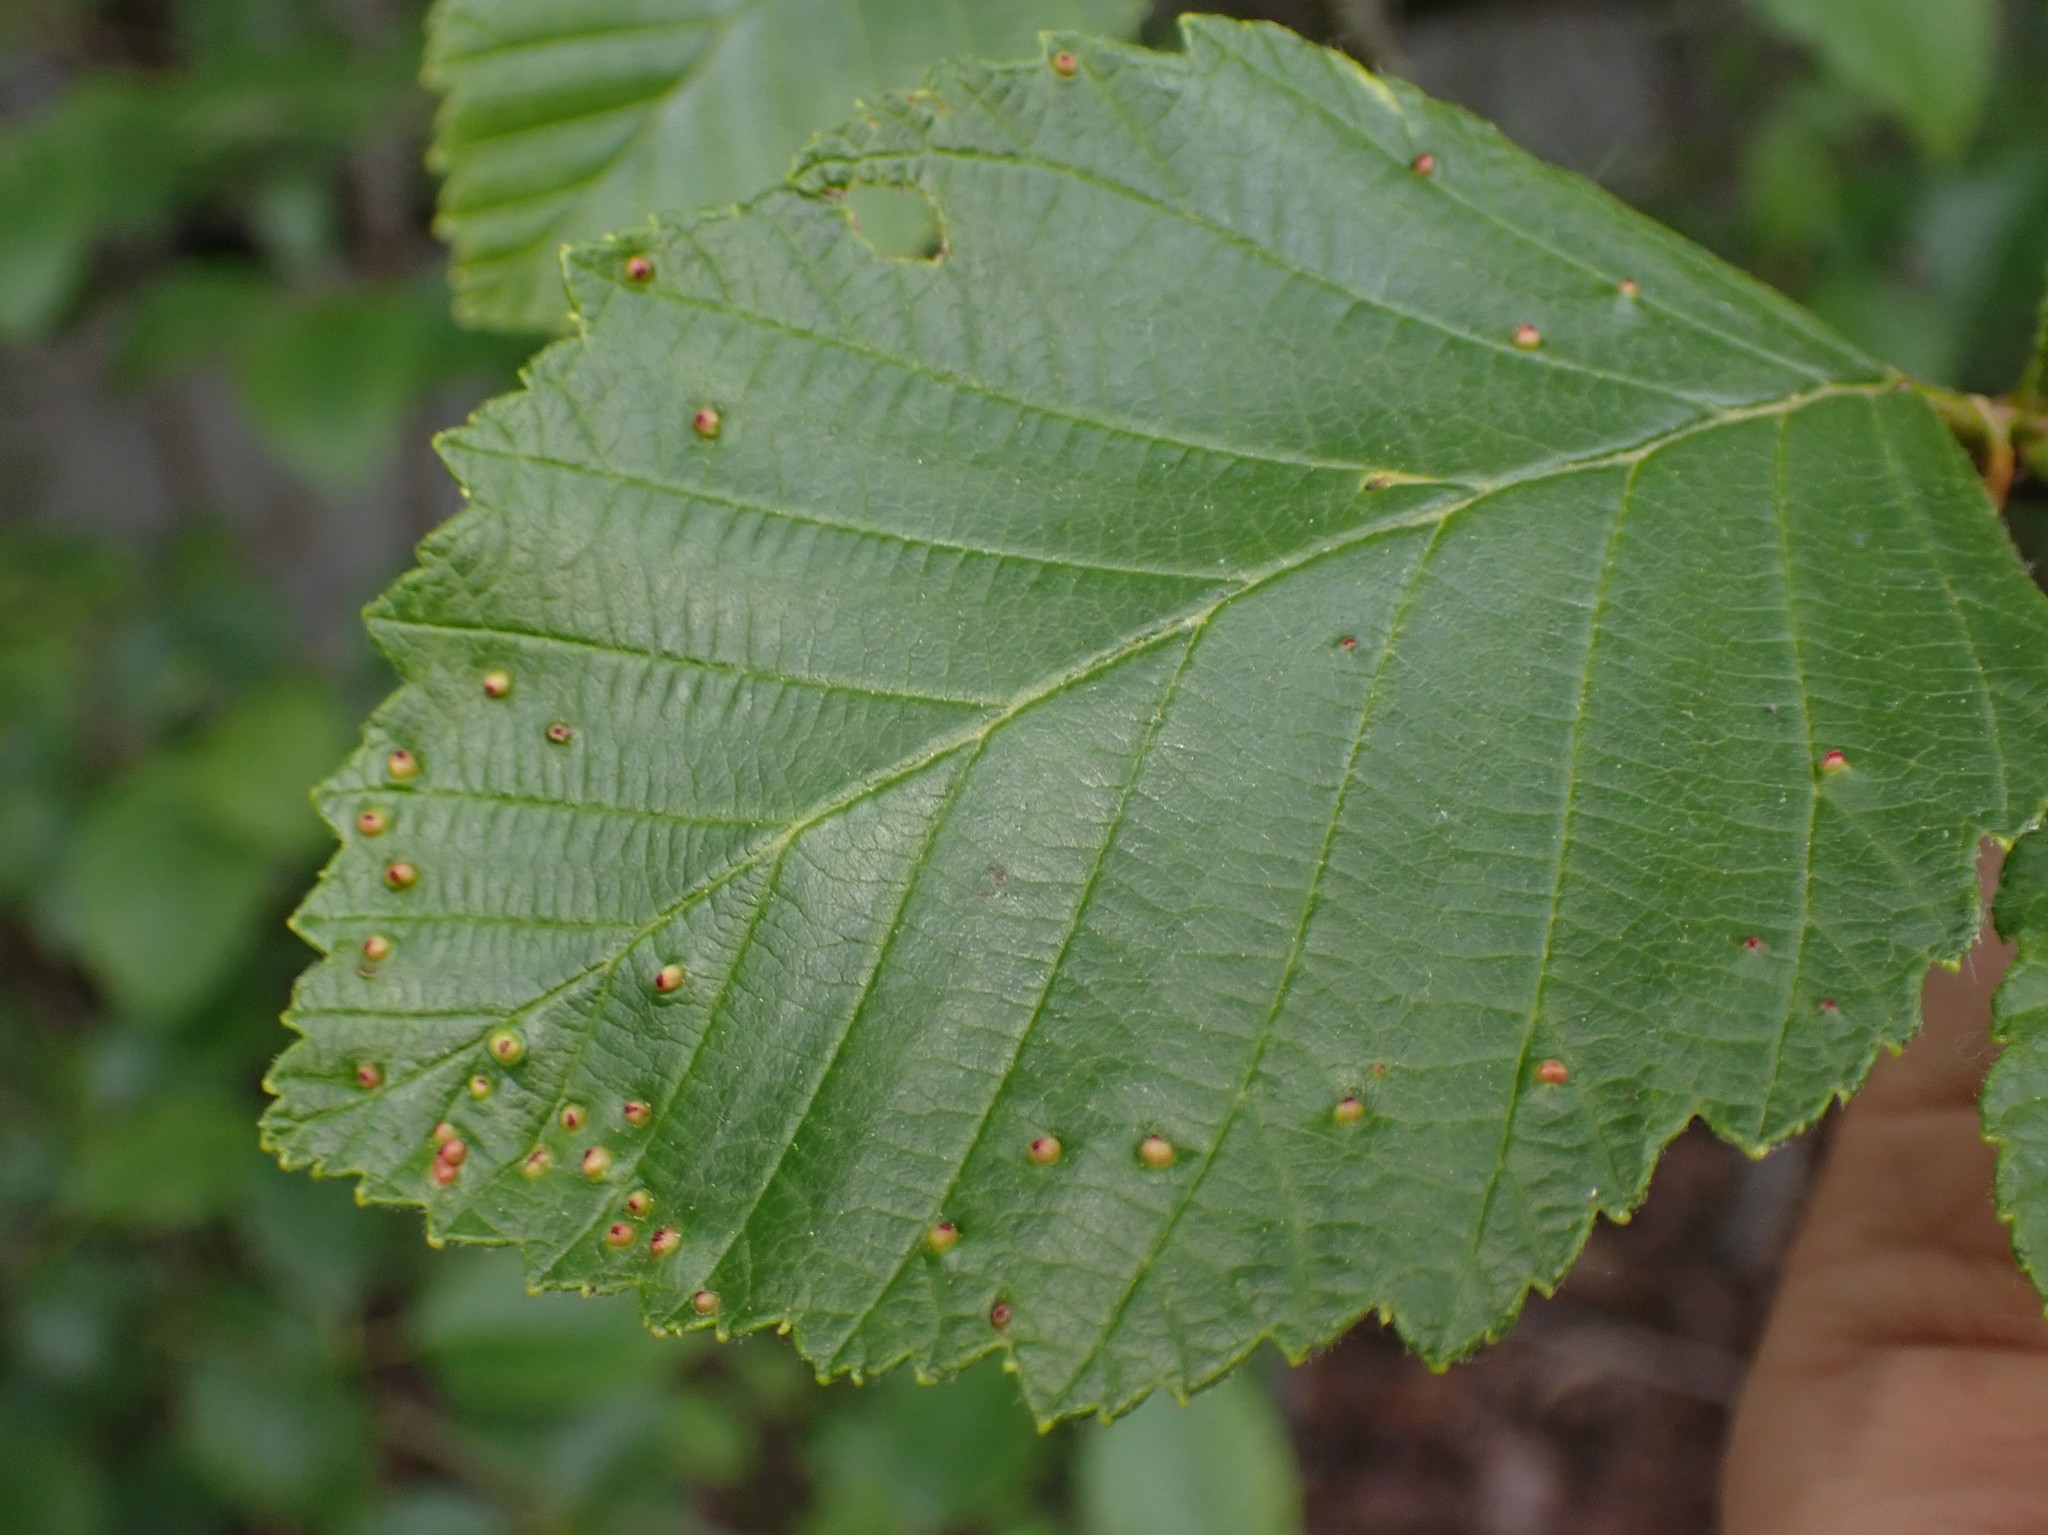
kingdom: Animalia
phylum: Arthropoda
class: Arachnida
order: Trombidiformes
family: Eriophyidae
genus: Eriophyes
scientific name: Eriophyes laevis
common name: Alder leaf gall mite
